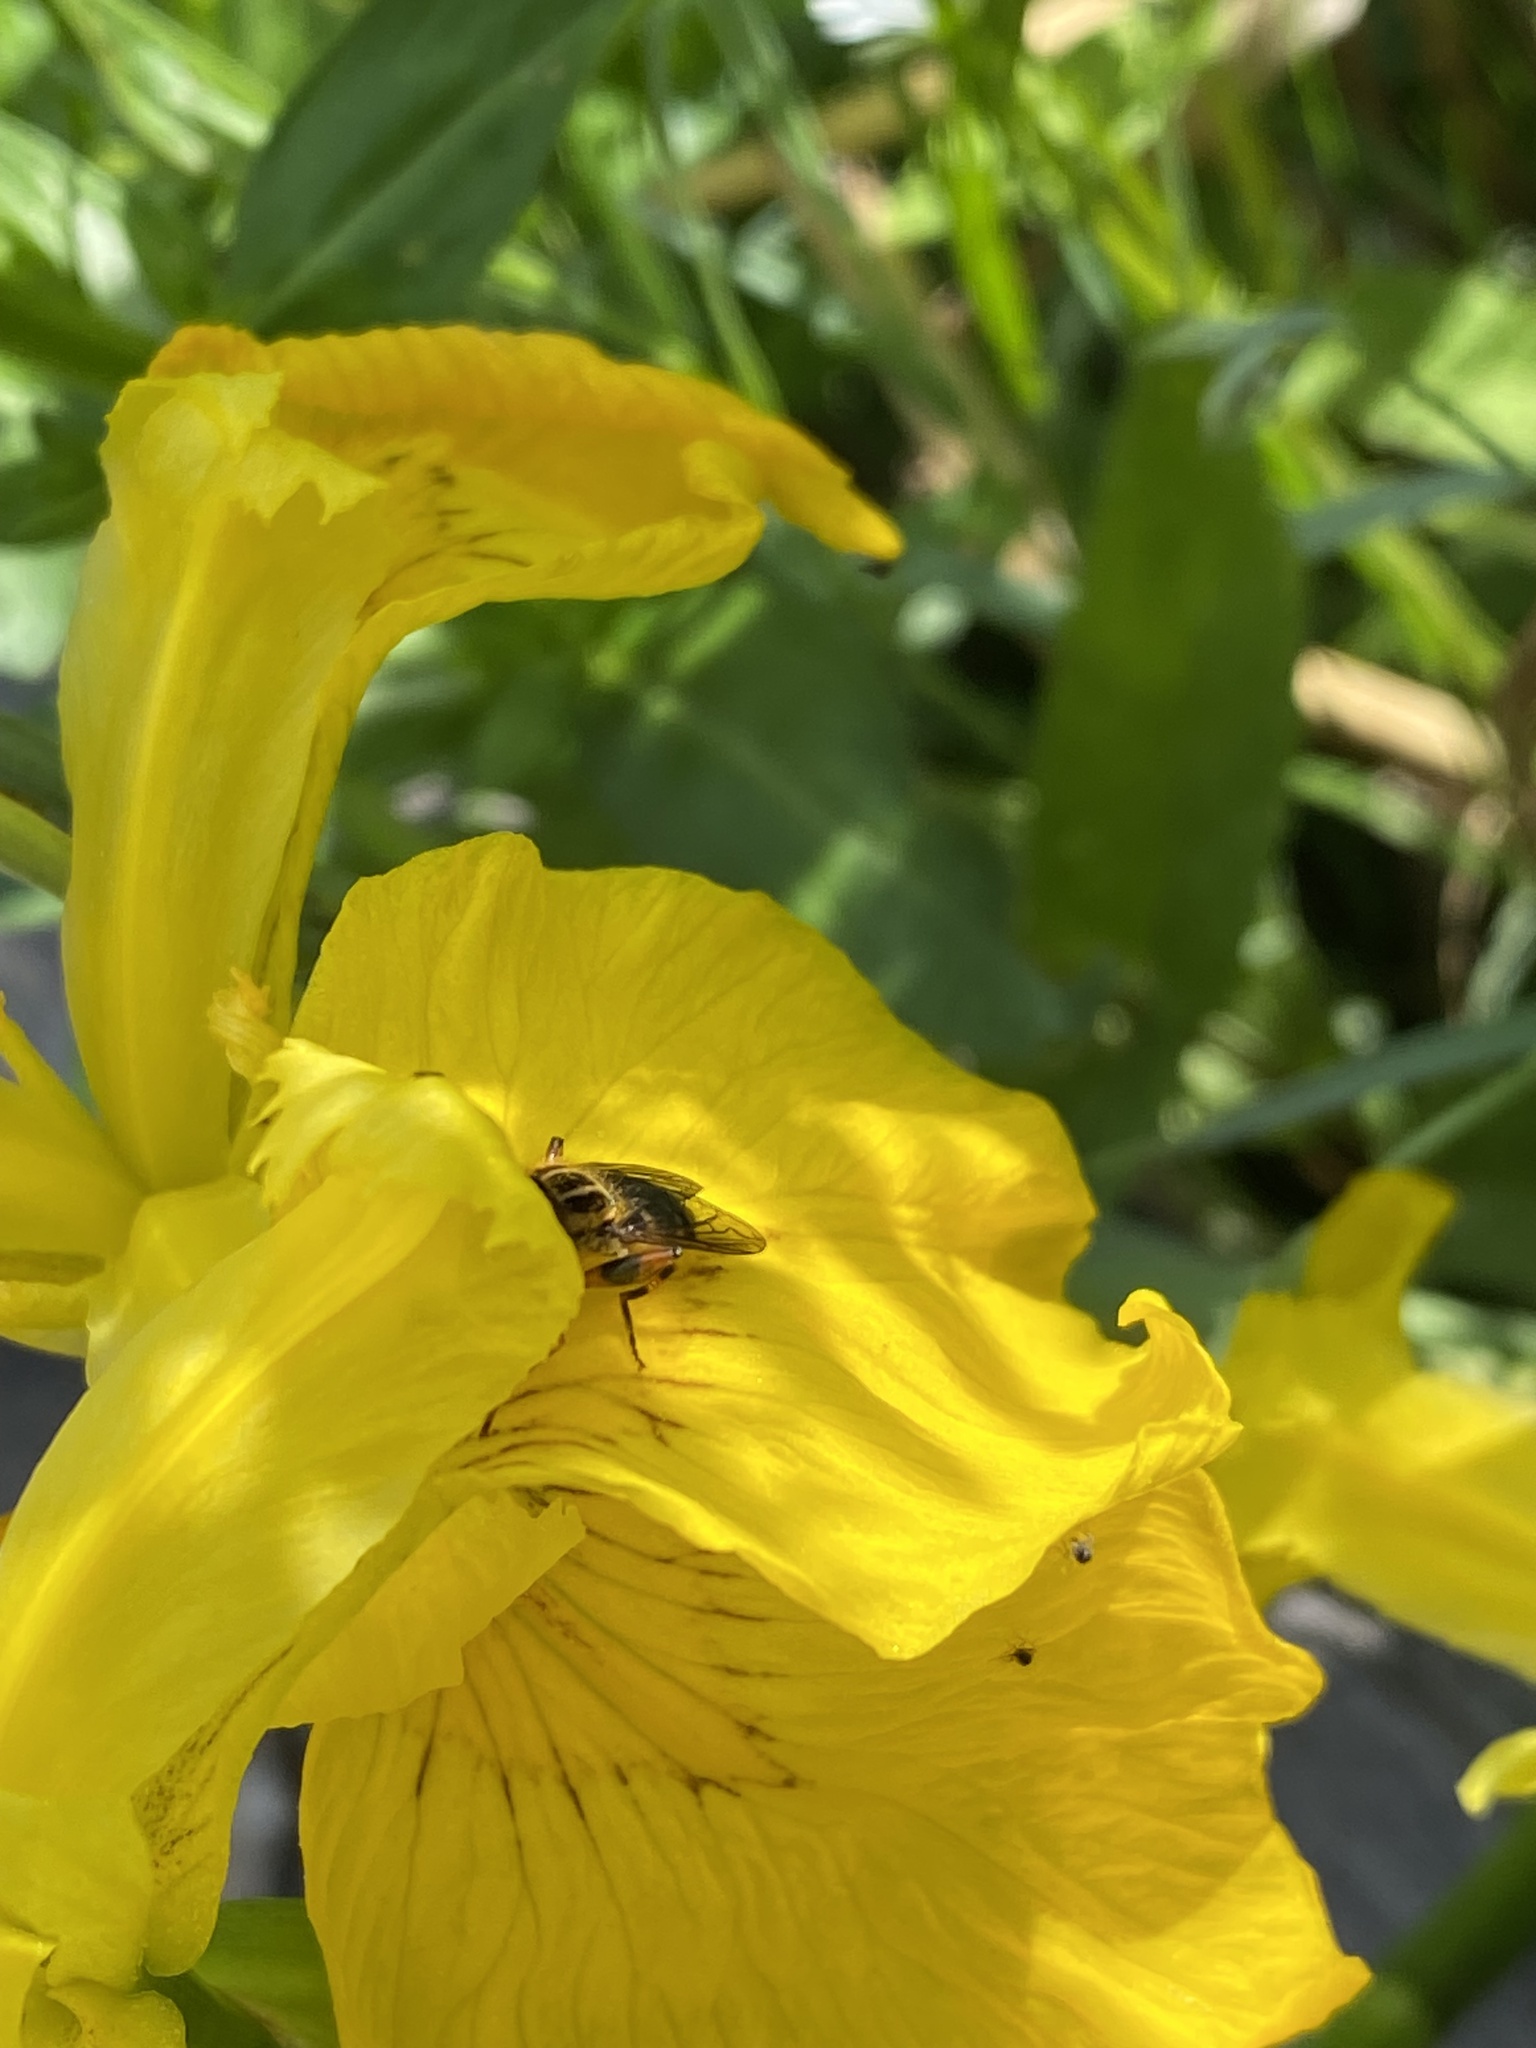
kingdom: Animalia
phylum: Arthropoda
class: Insecta
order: Diptera
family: Syrphidae
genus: Eurimyia
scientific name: Eurimyia lineatus
